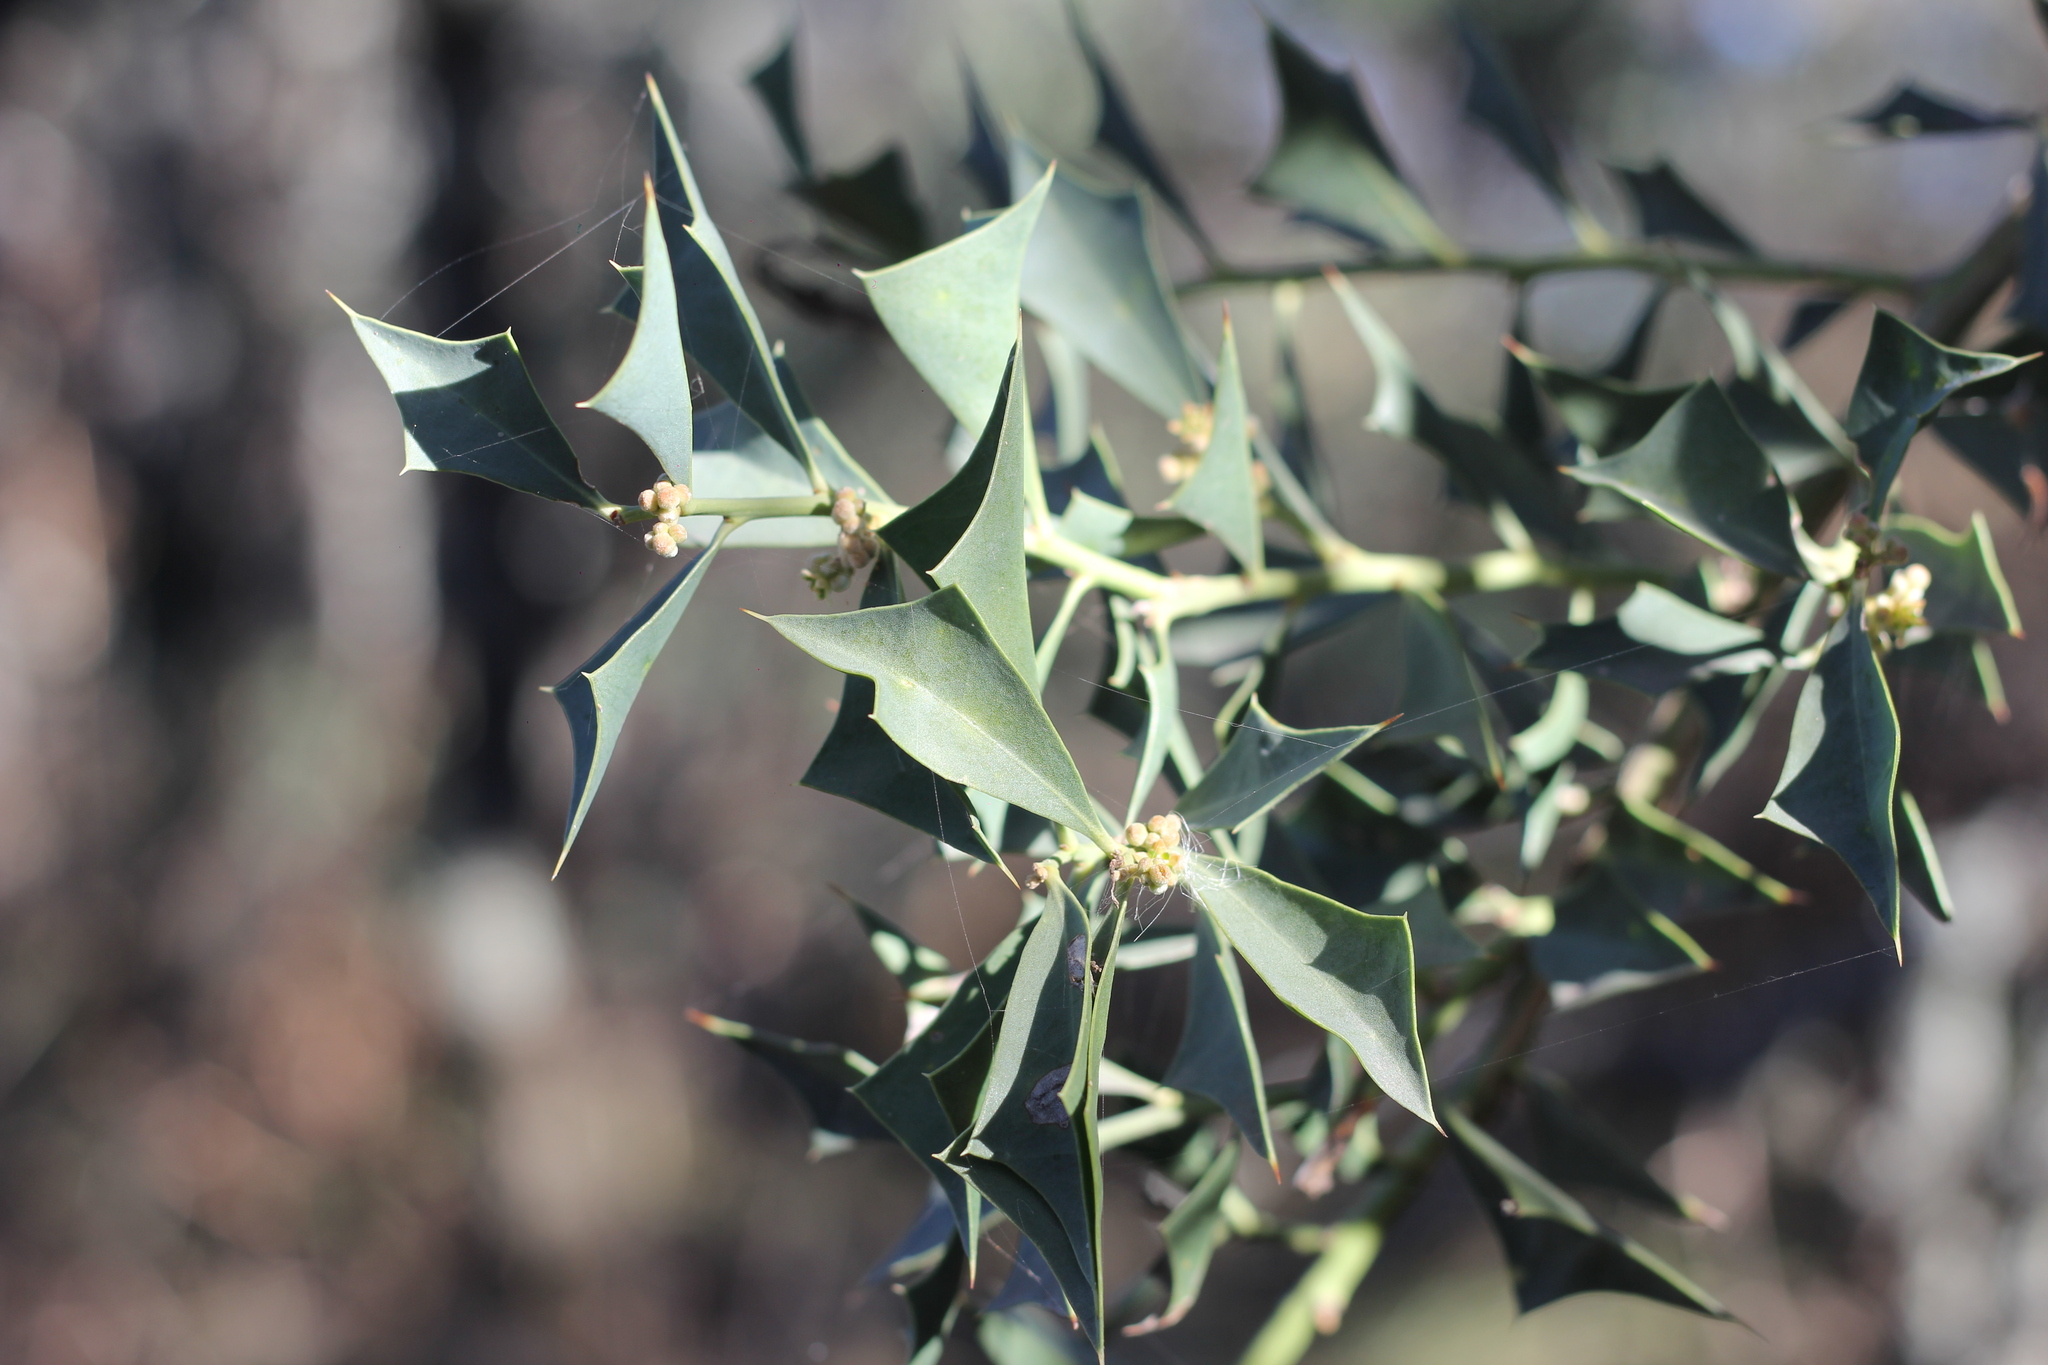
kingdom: Plantae
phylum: Tracheophyta
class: Magnoliopsida
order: Santalales
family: Cervantesiaceae
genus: Jodina
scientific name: Jodina rhombifolia
